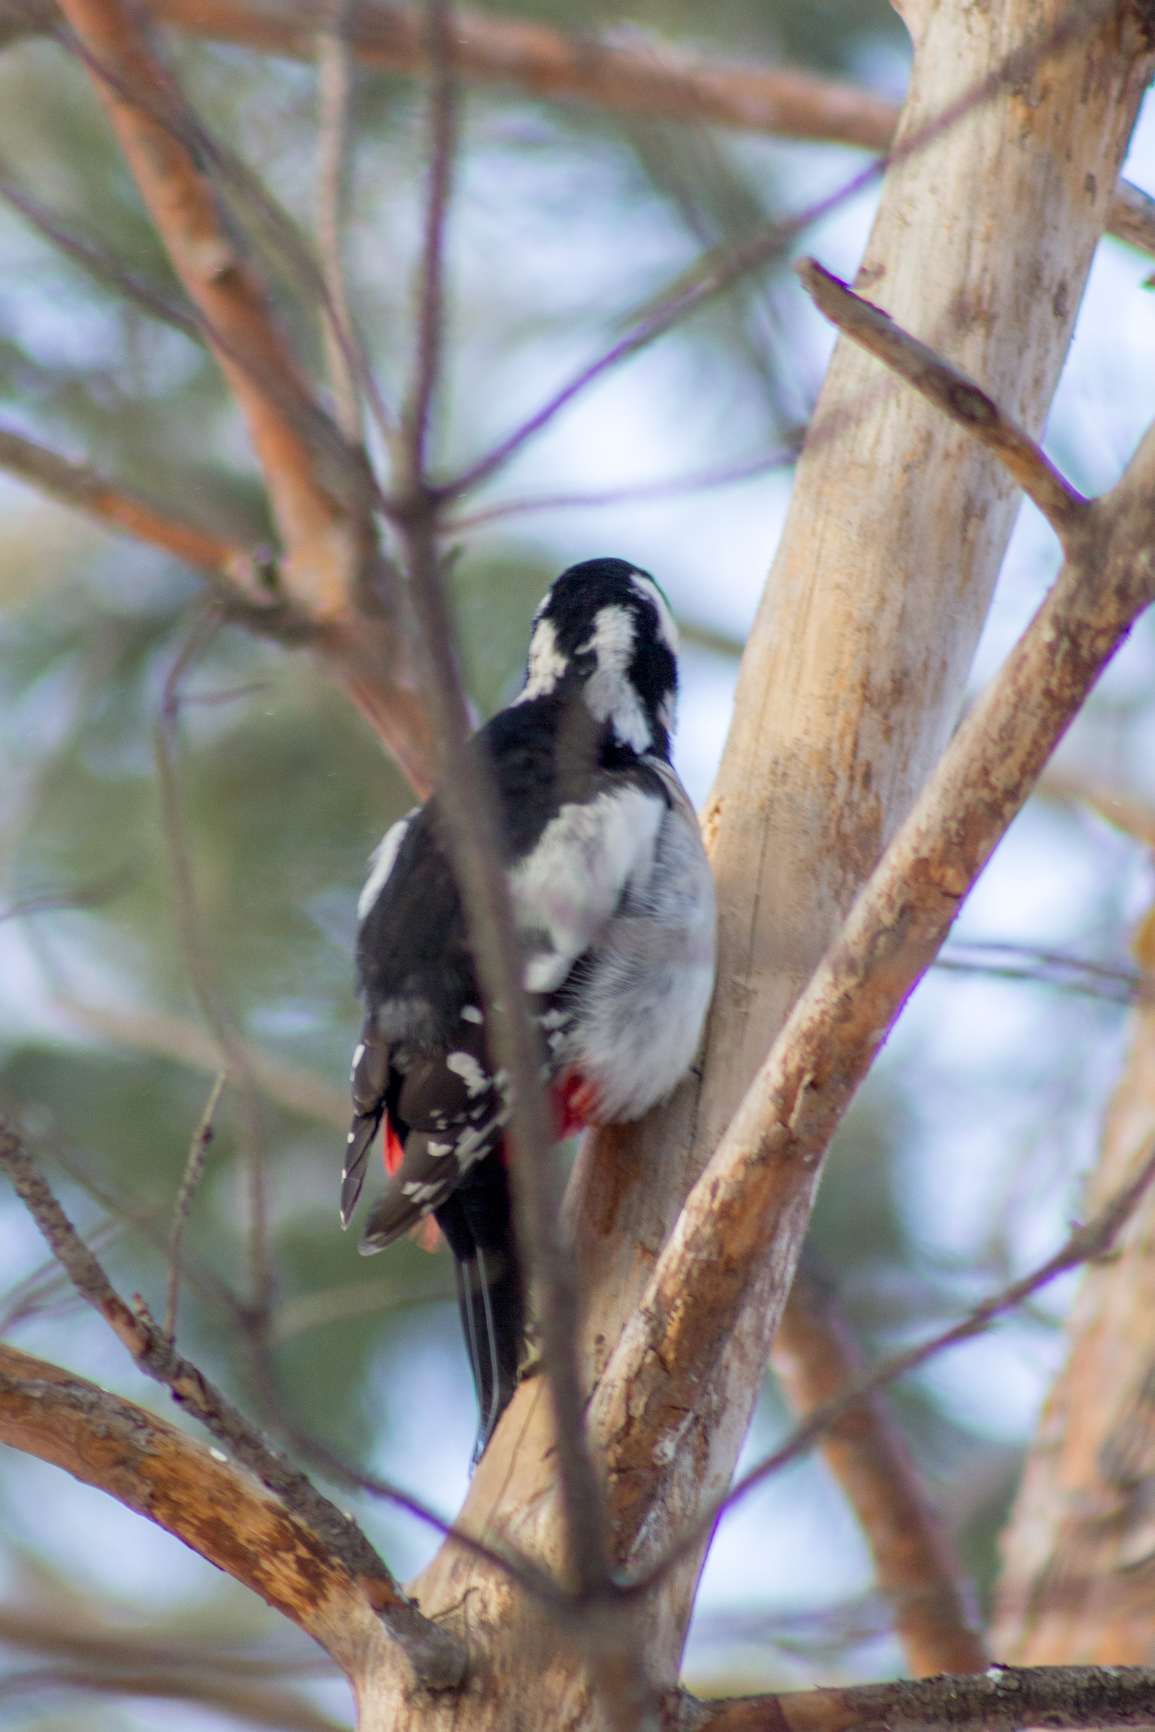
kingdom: Animalia
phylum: Chordata
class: Aves
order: Piciformes
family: Picidae
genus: Dendrocopos
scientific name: Dendrocopos major
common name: Great spotted woodpecker
